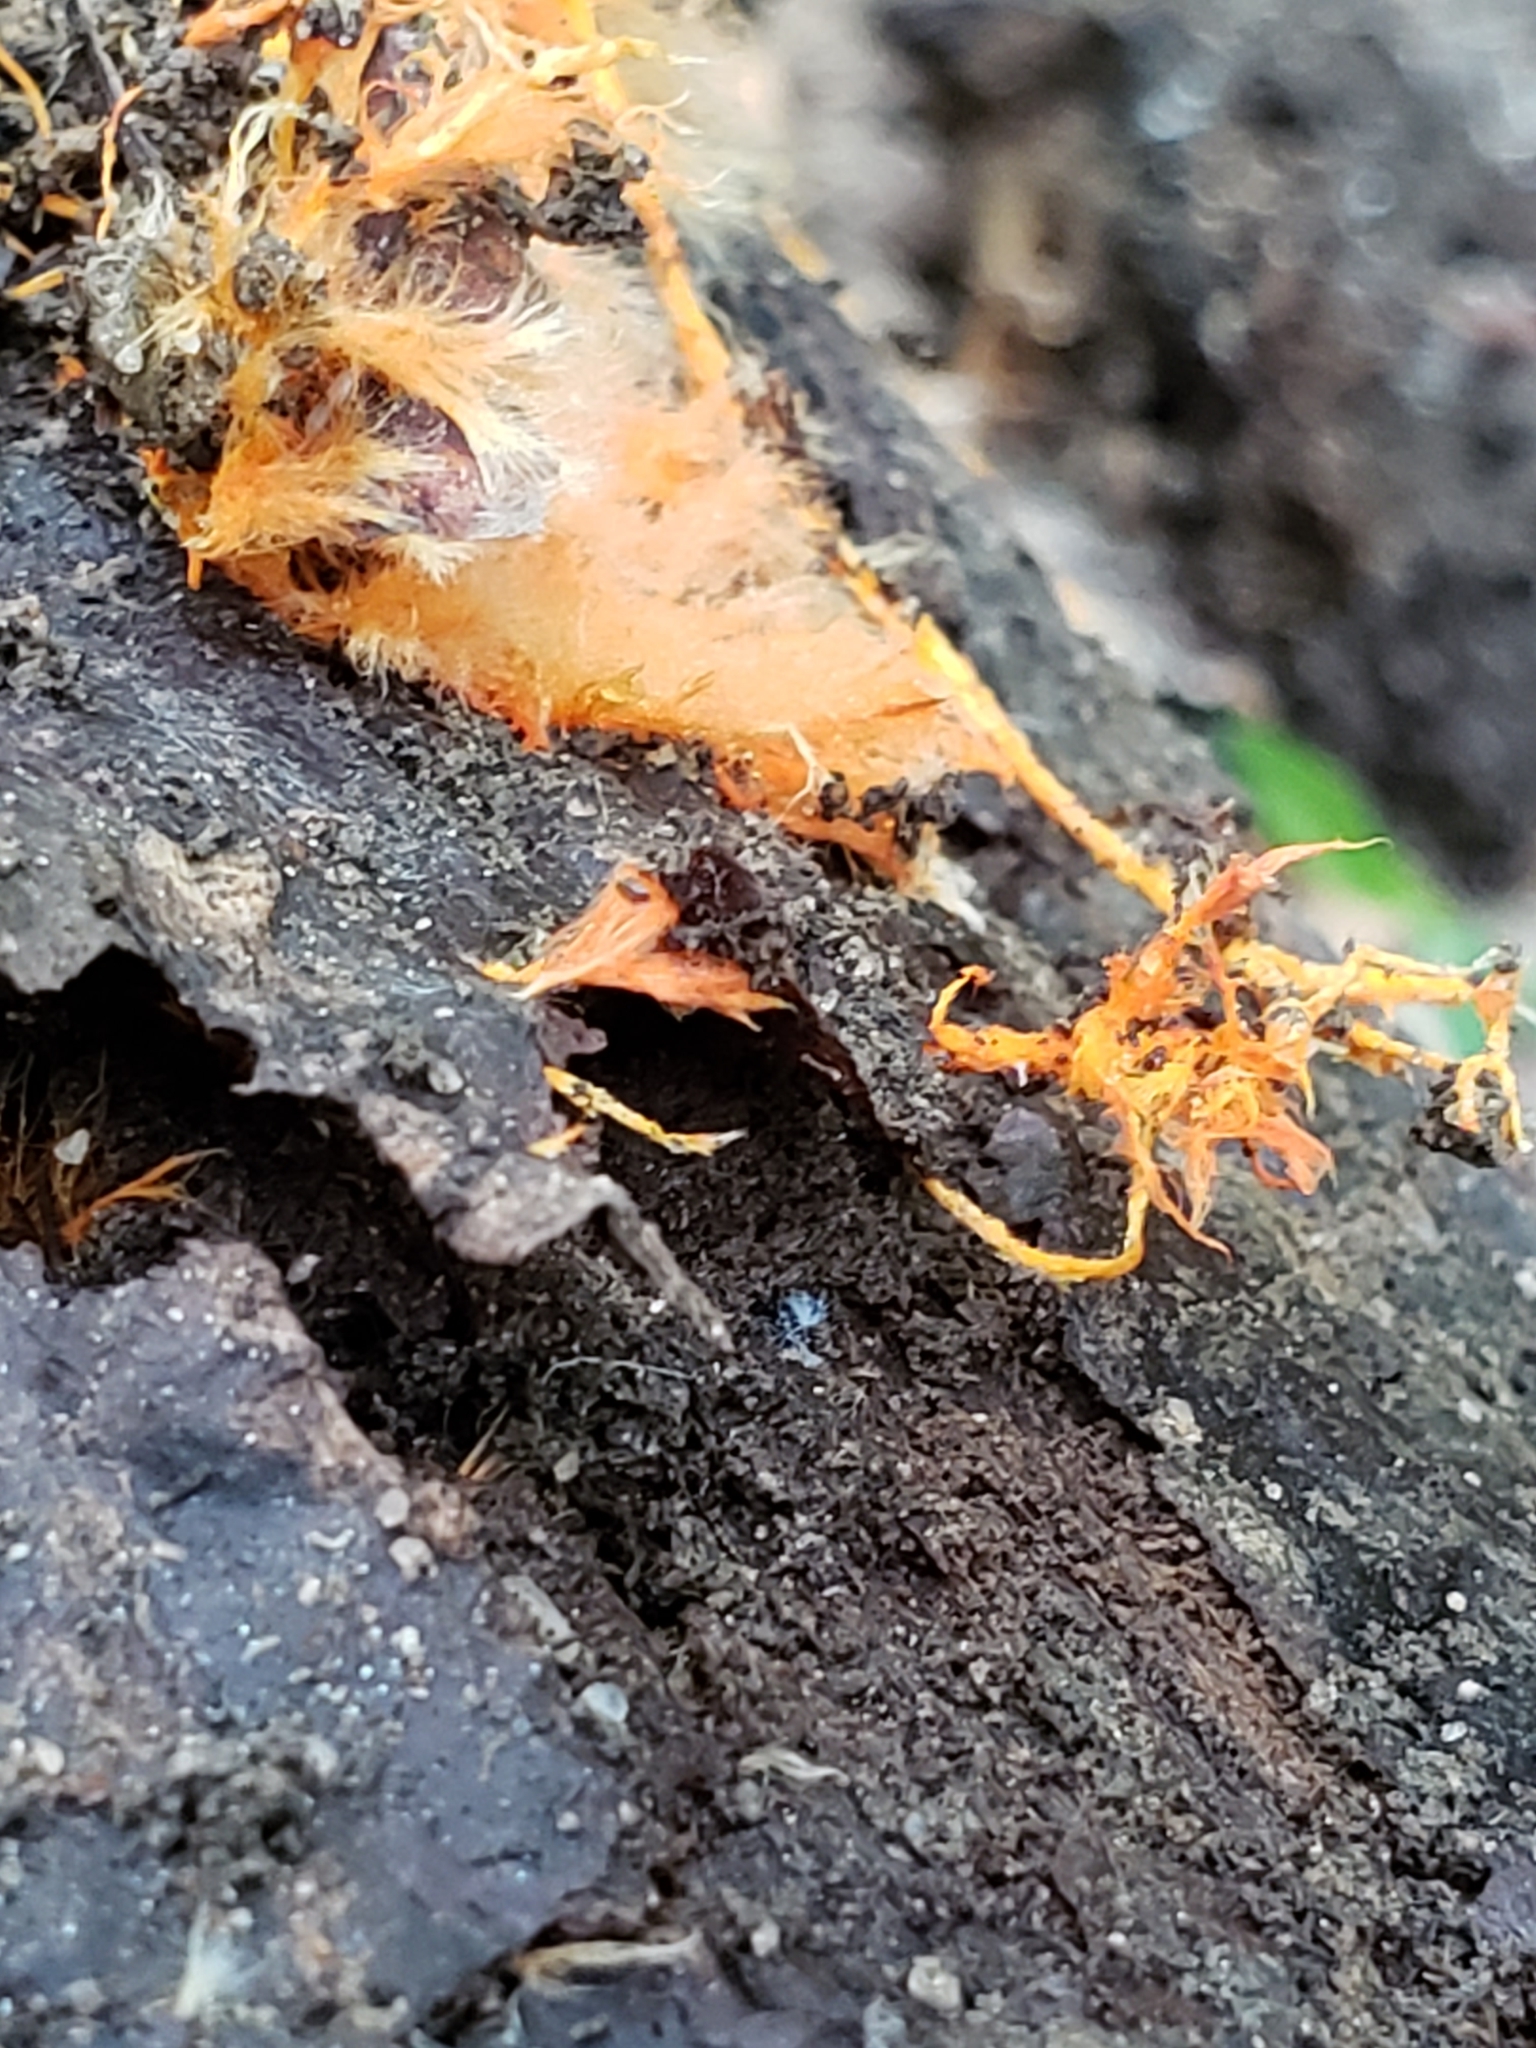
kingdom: Fungi
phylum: Basidiomycota
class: Agaricomycetes
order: Polyporales
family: Meruliaceae
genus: Hydnophlebia
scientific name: Hydnophlebia chrysorhiza
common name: Spreading yellow tooth
